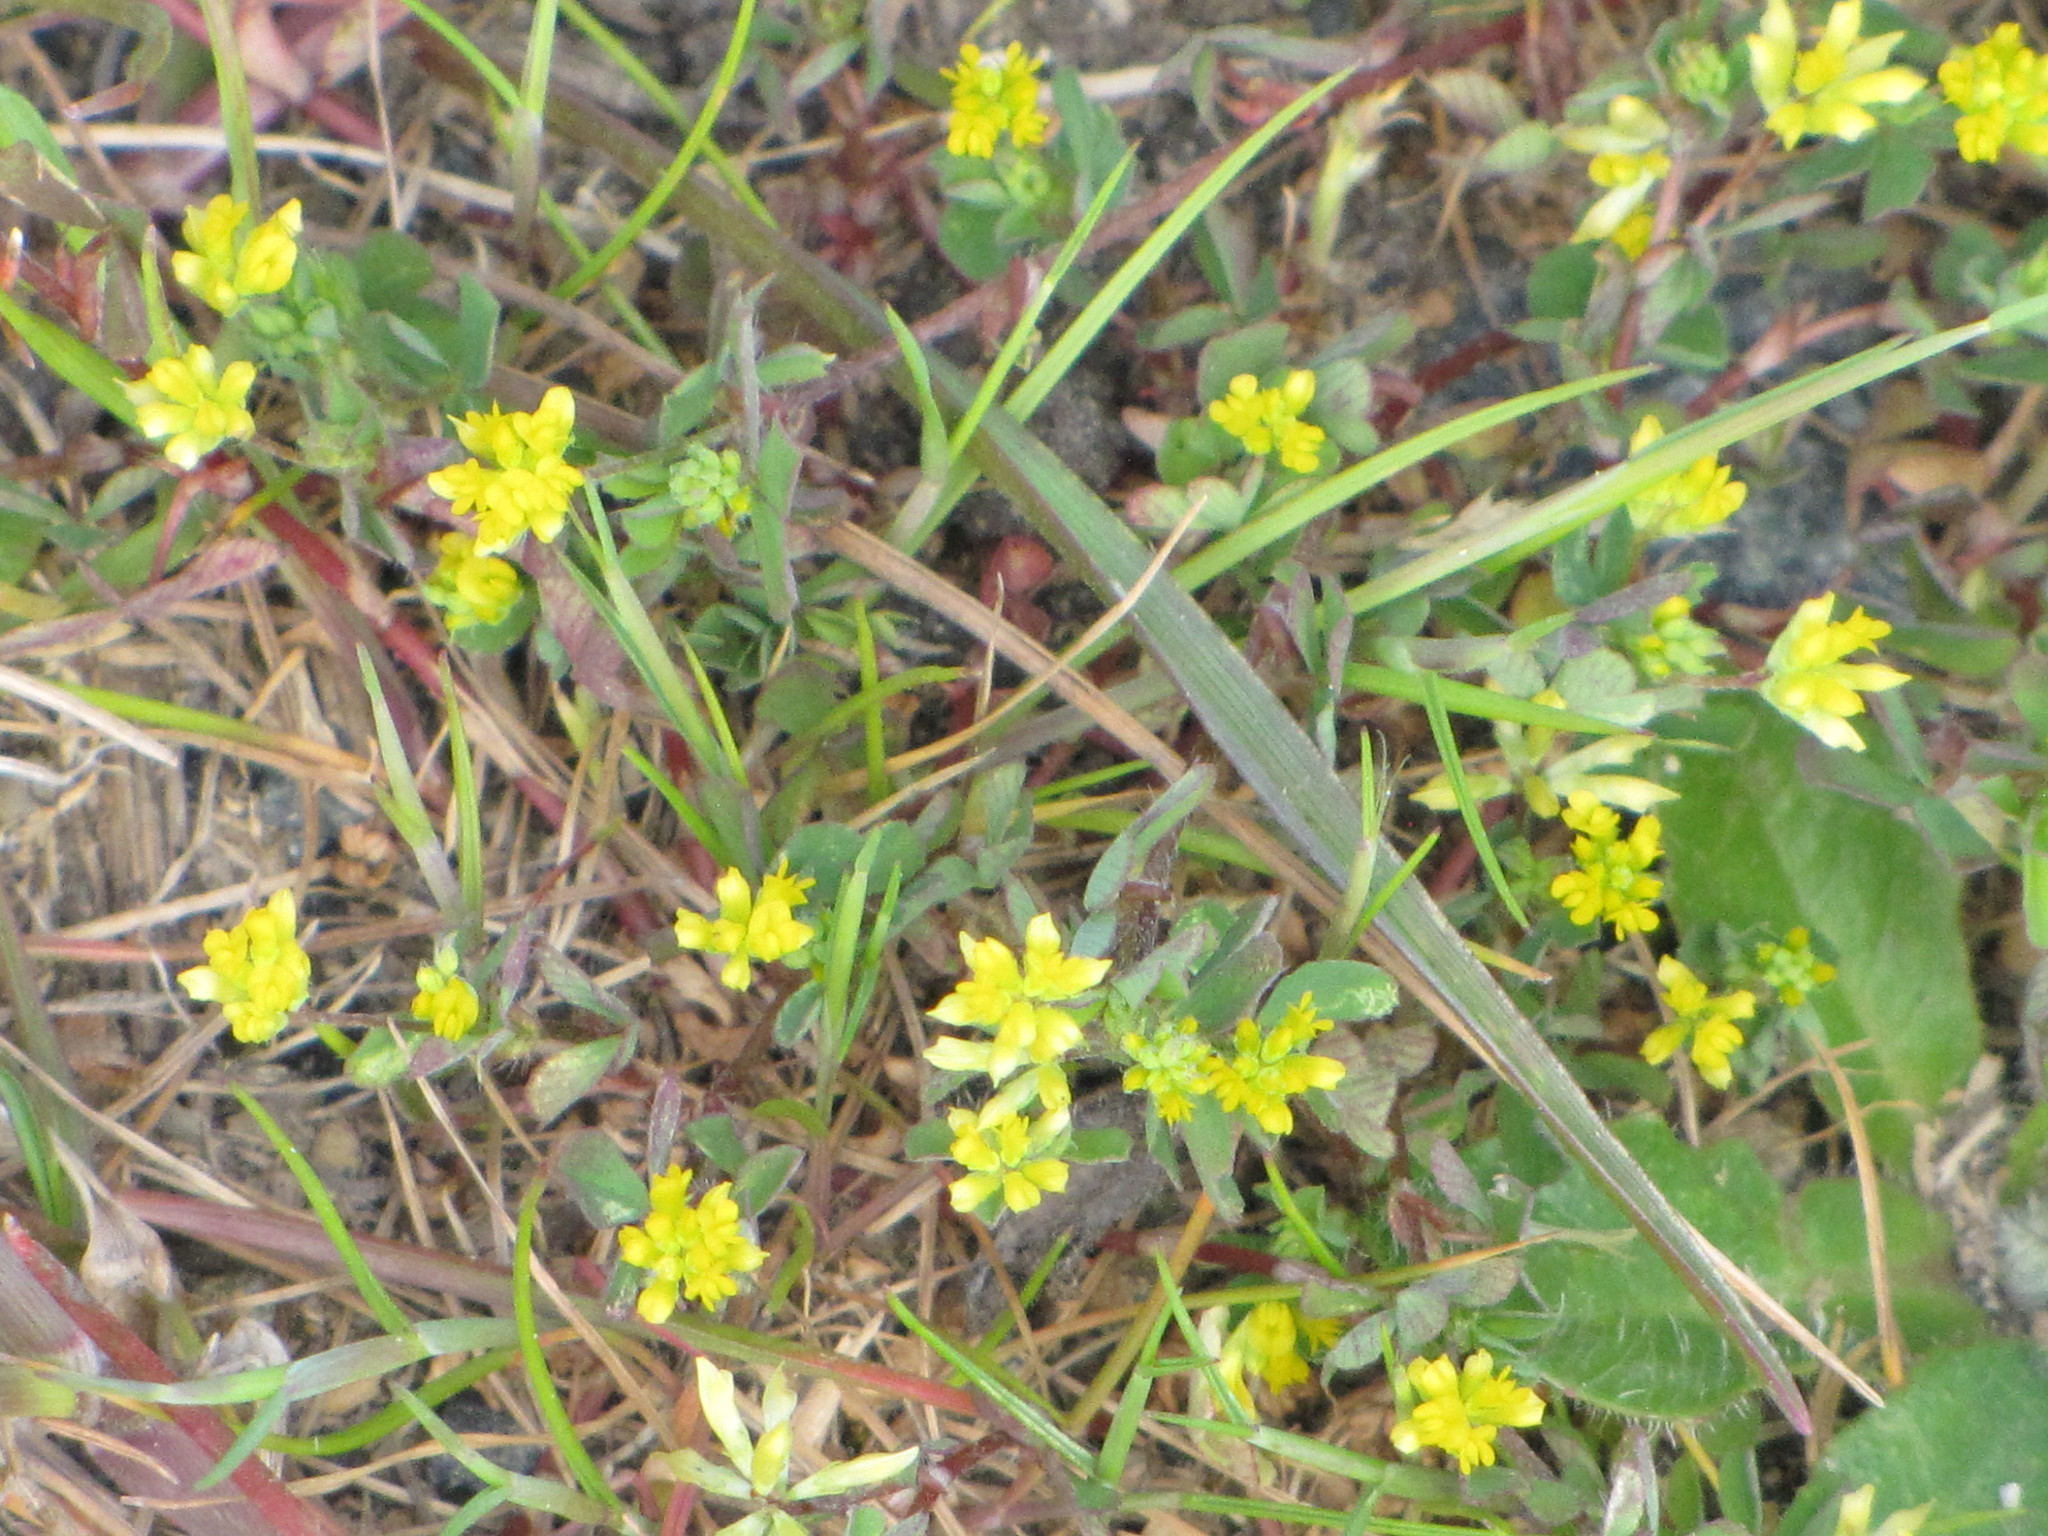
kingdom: Plantae
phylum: Tracheophyta
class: Magnoliopsida
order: Fabales
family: Fabaceae
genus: Trifolium
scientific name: Trifolium dubium
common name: Suckling clover
